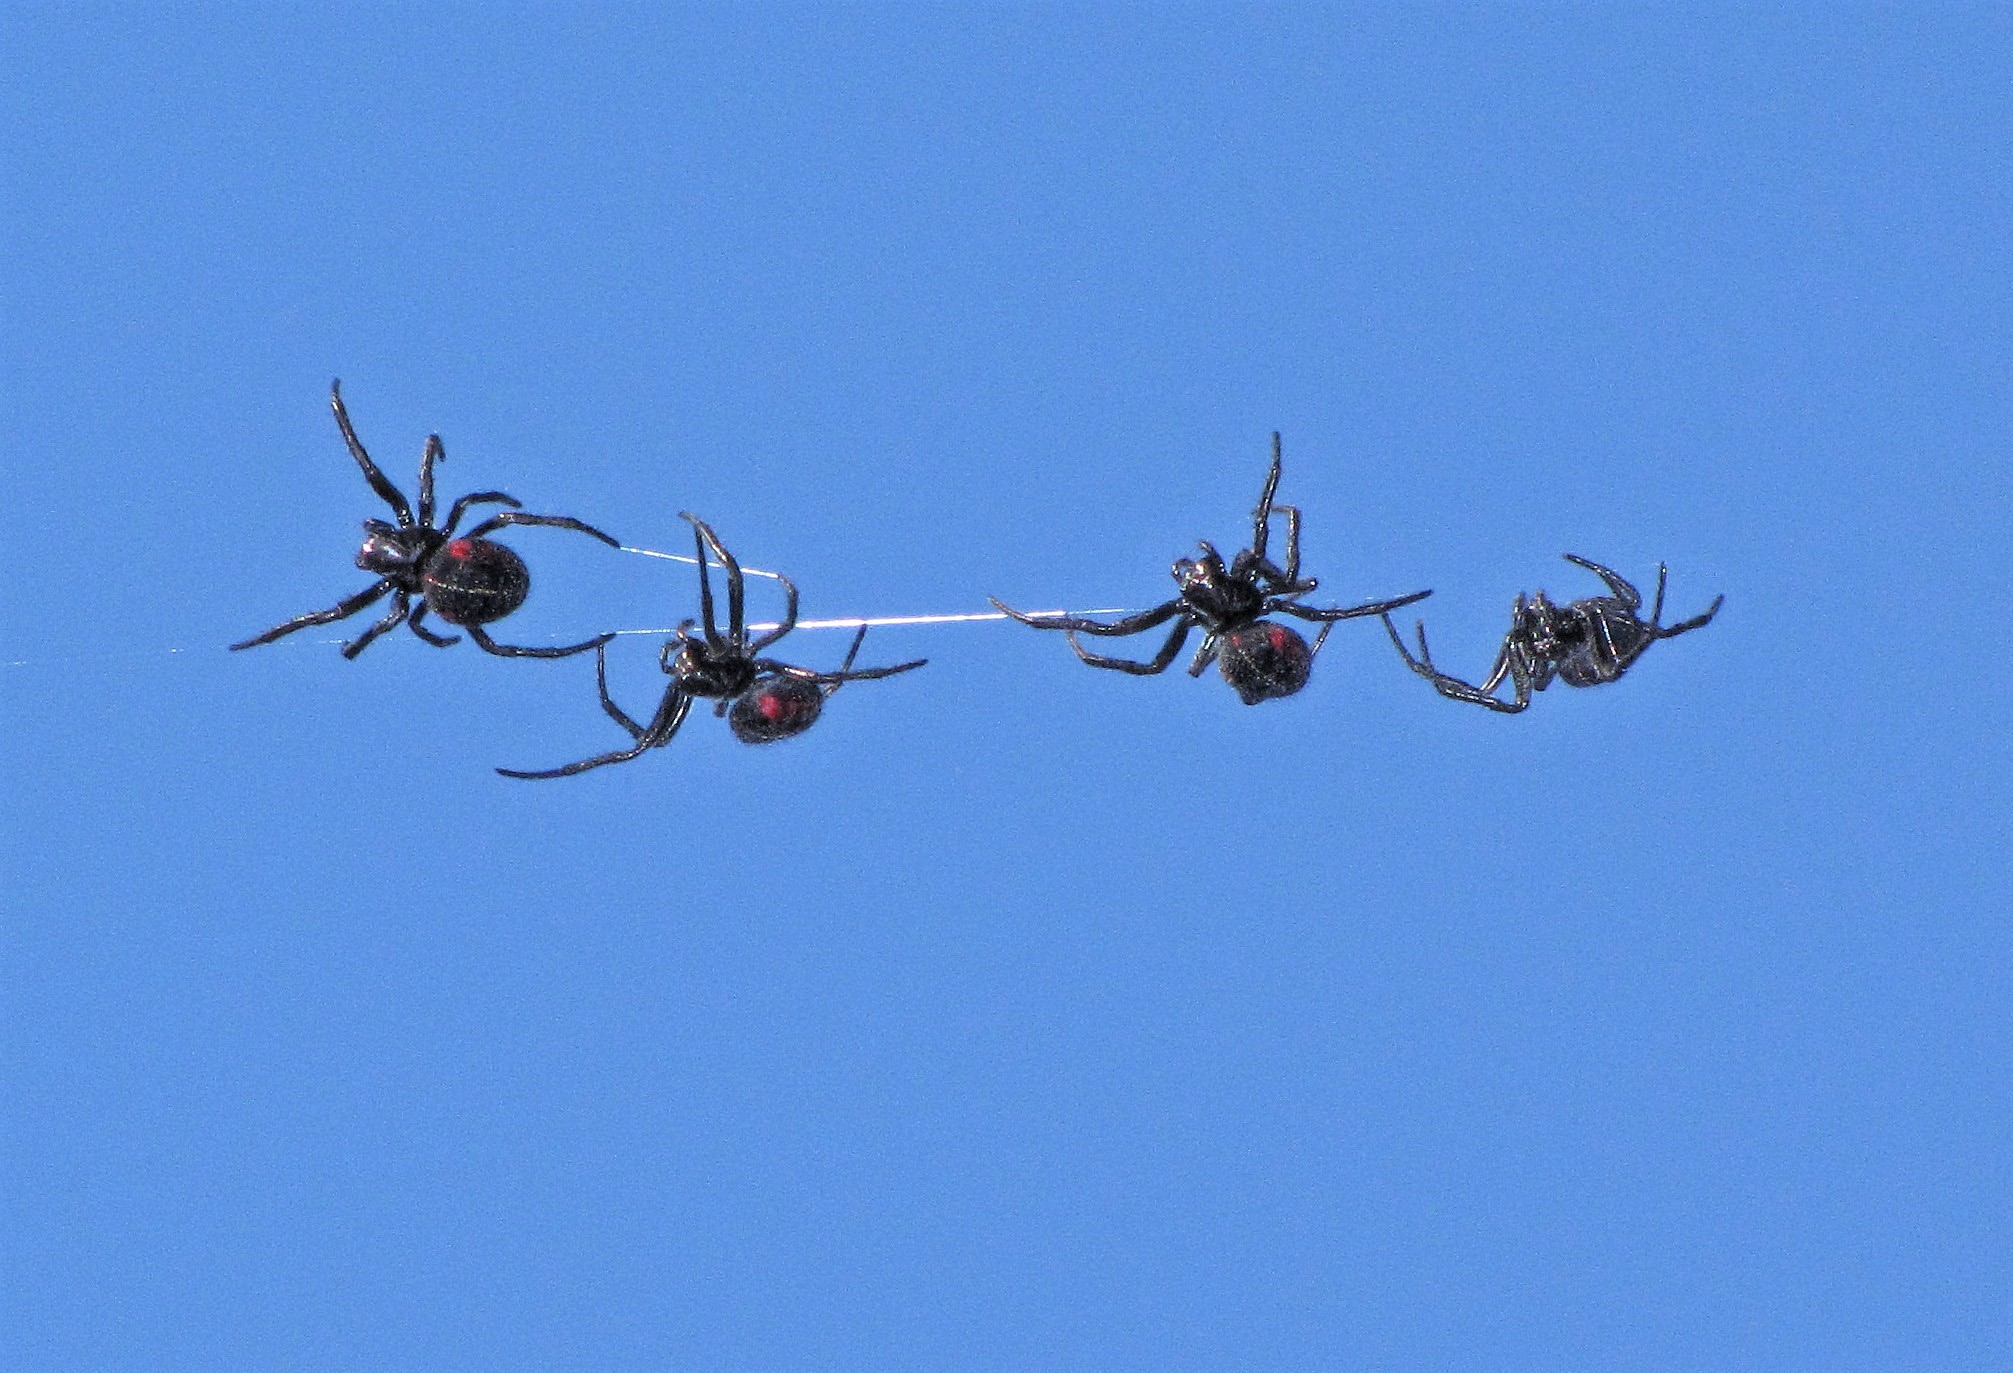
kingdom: Animalia
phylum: Arthropoda
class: Arachnida
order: Araneae
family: Araneidae
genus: Parawixia
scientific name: Parawixia bistriata
